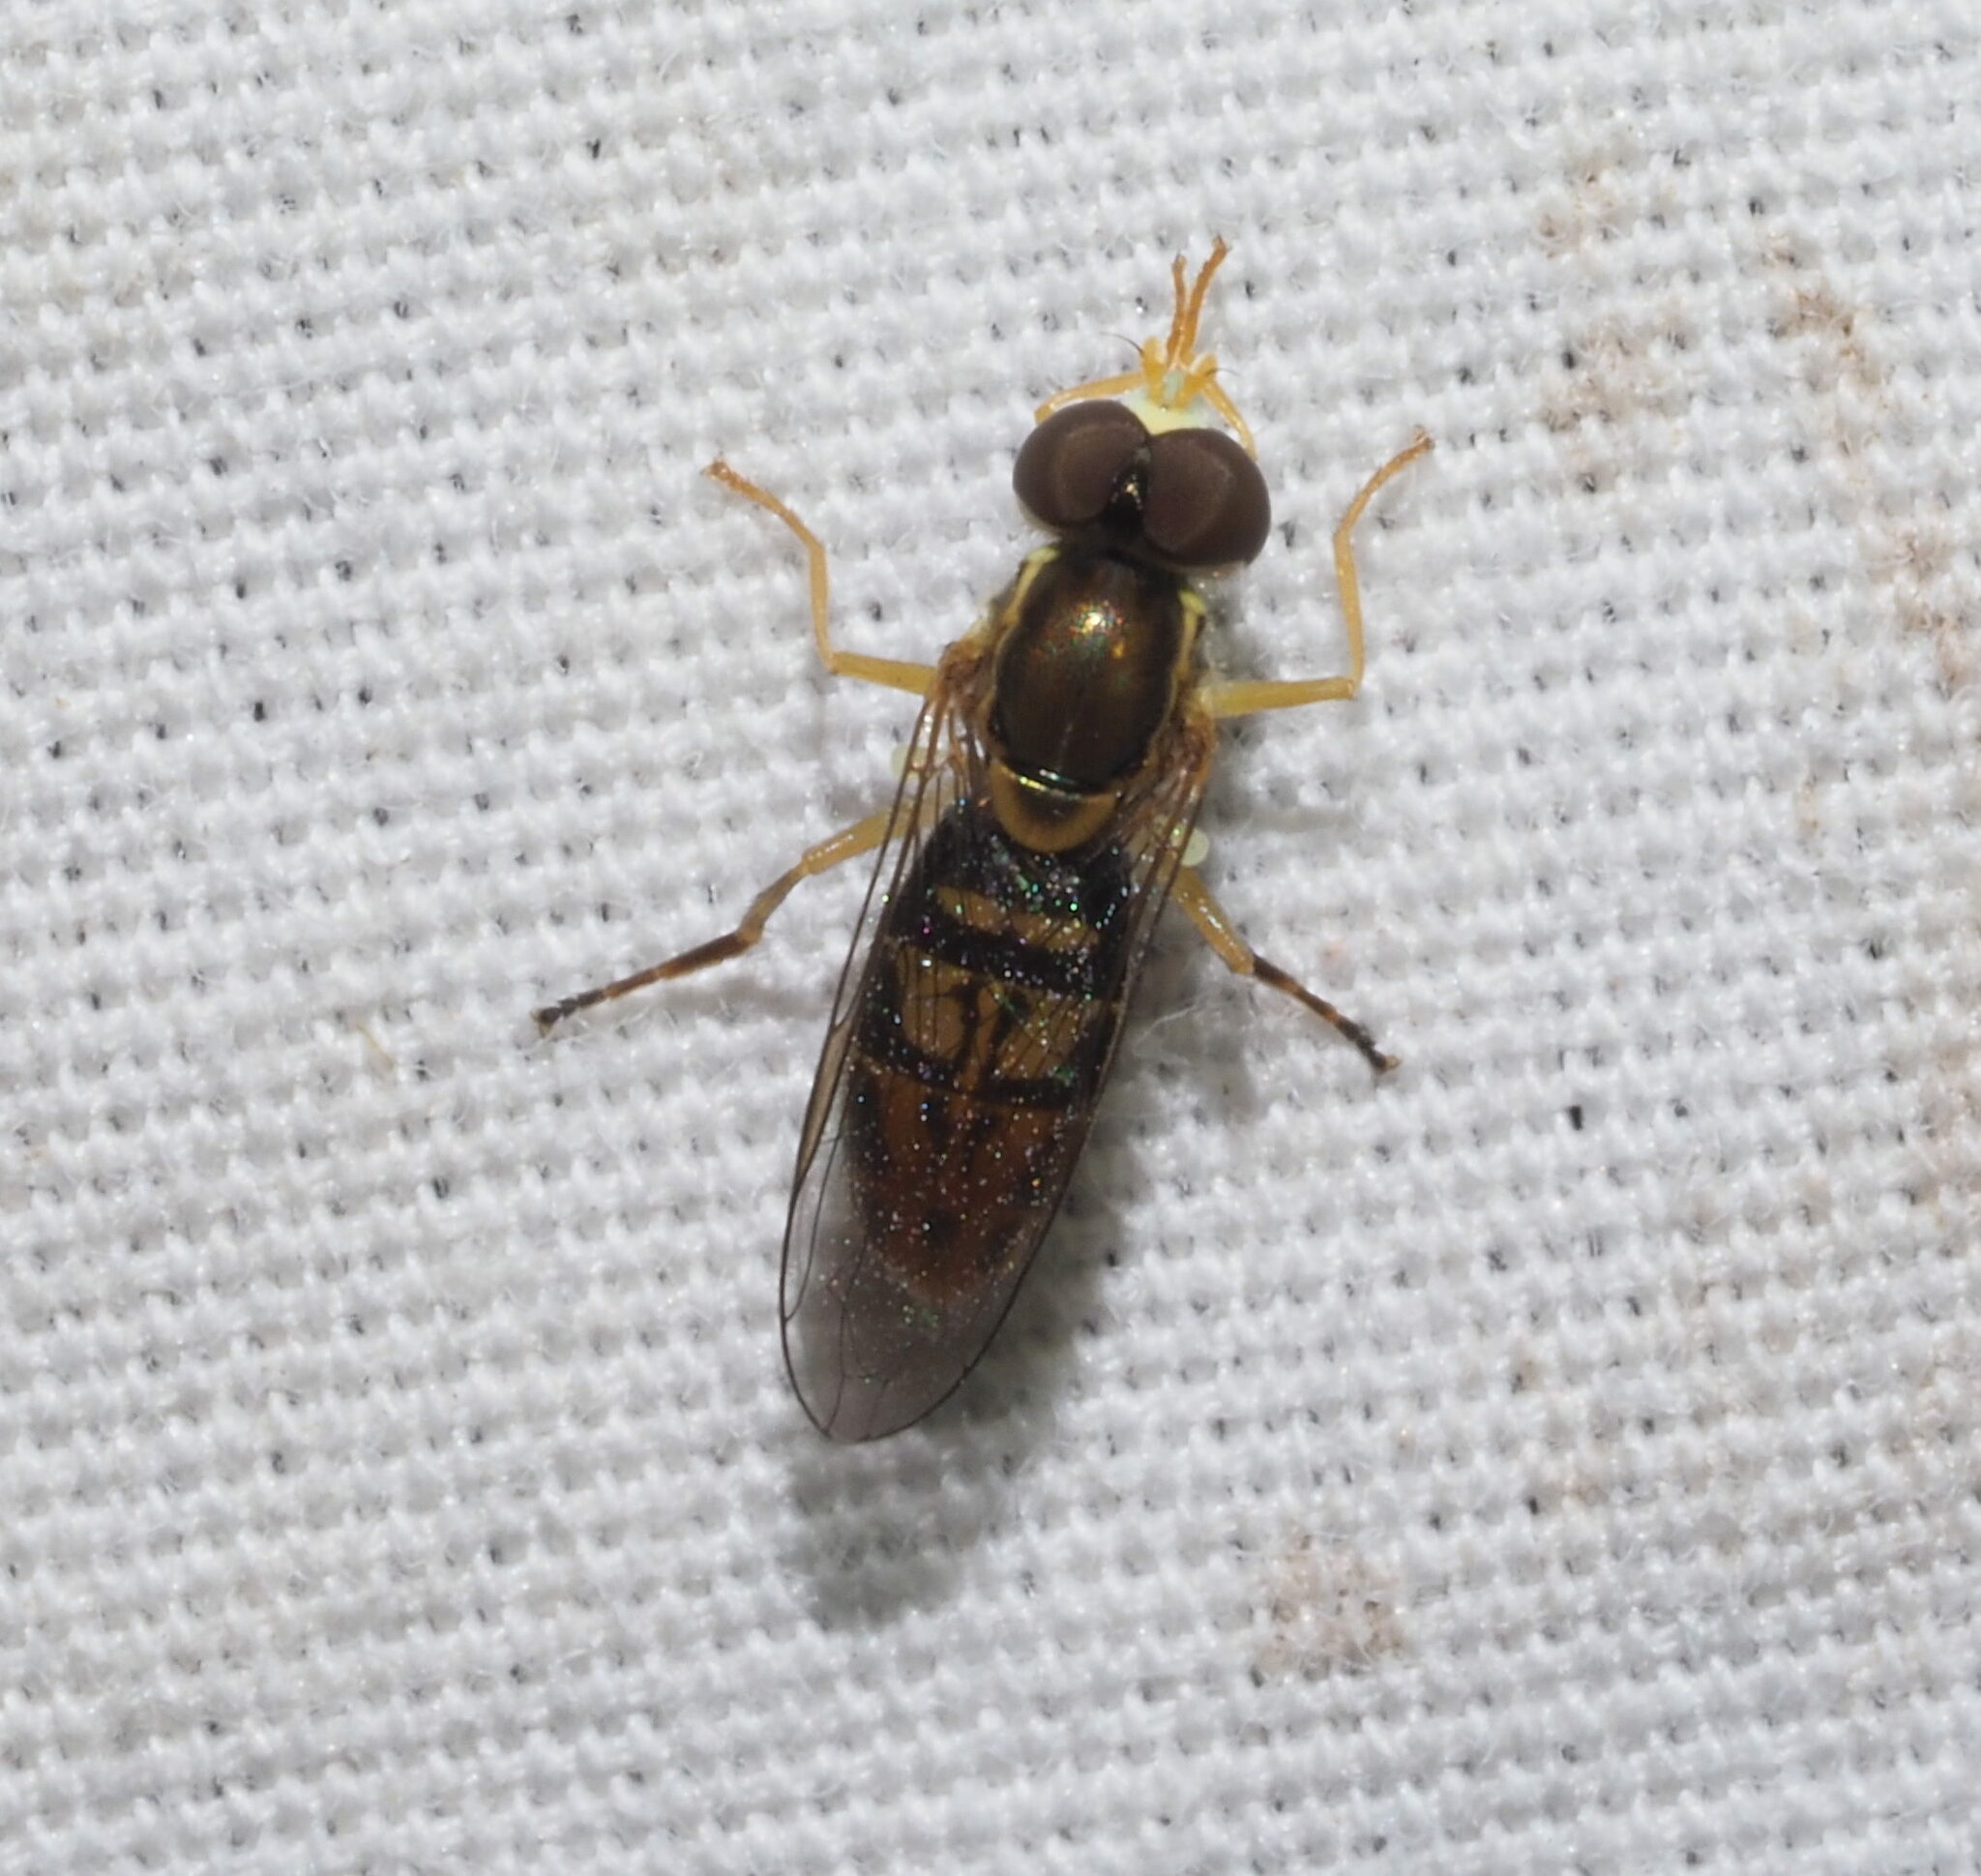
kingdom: Animalia
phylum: Arthropoda
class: Insecta
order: Diptera
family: Syrphidae
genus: Toxomerus
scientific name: Toxomerus marginatus
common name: Syrphid fly
